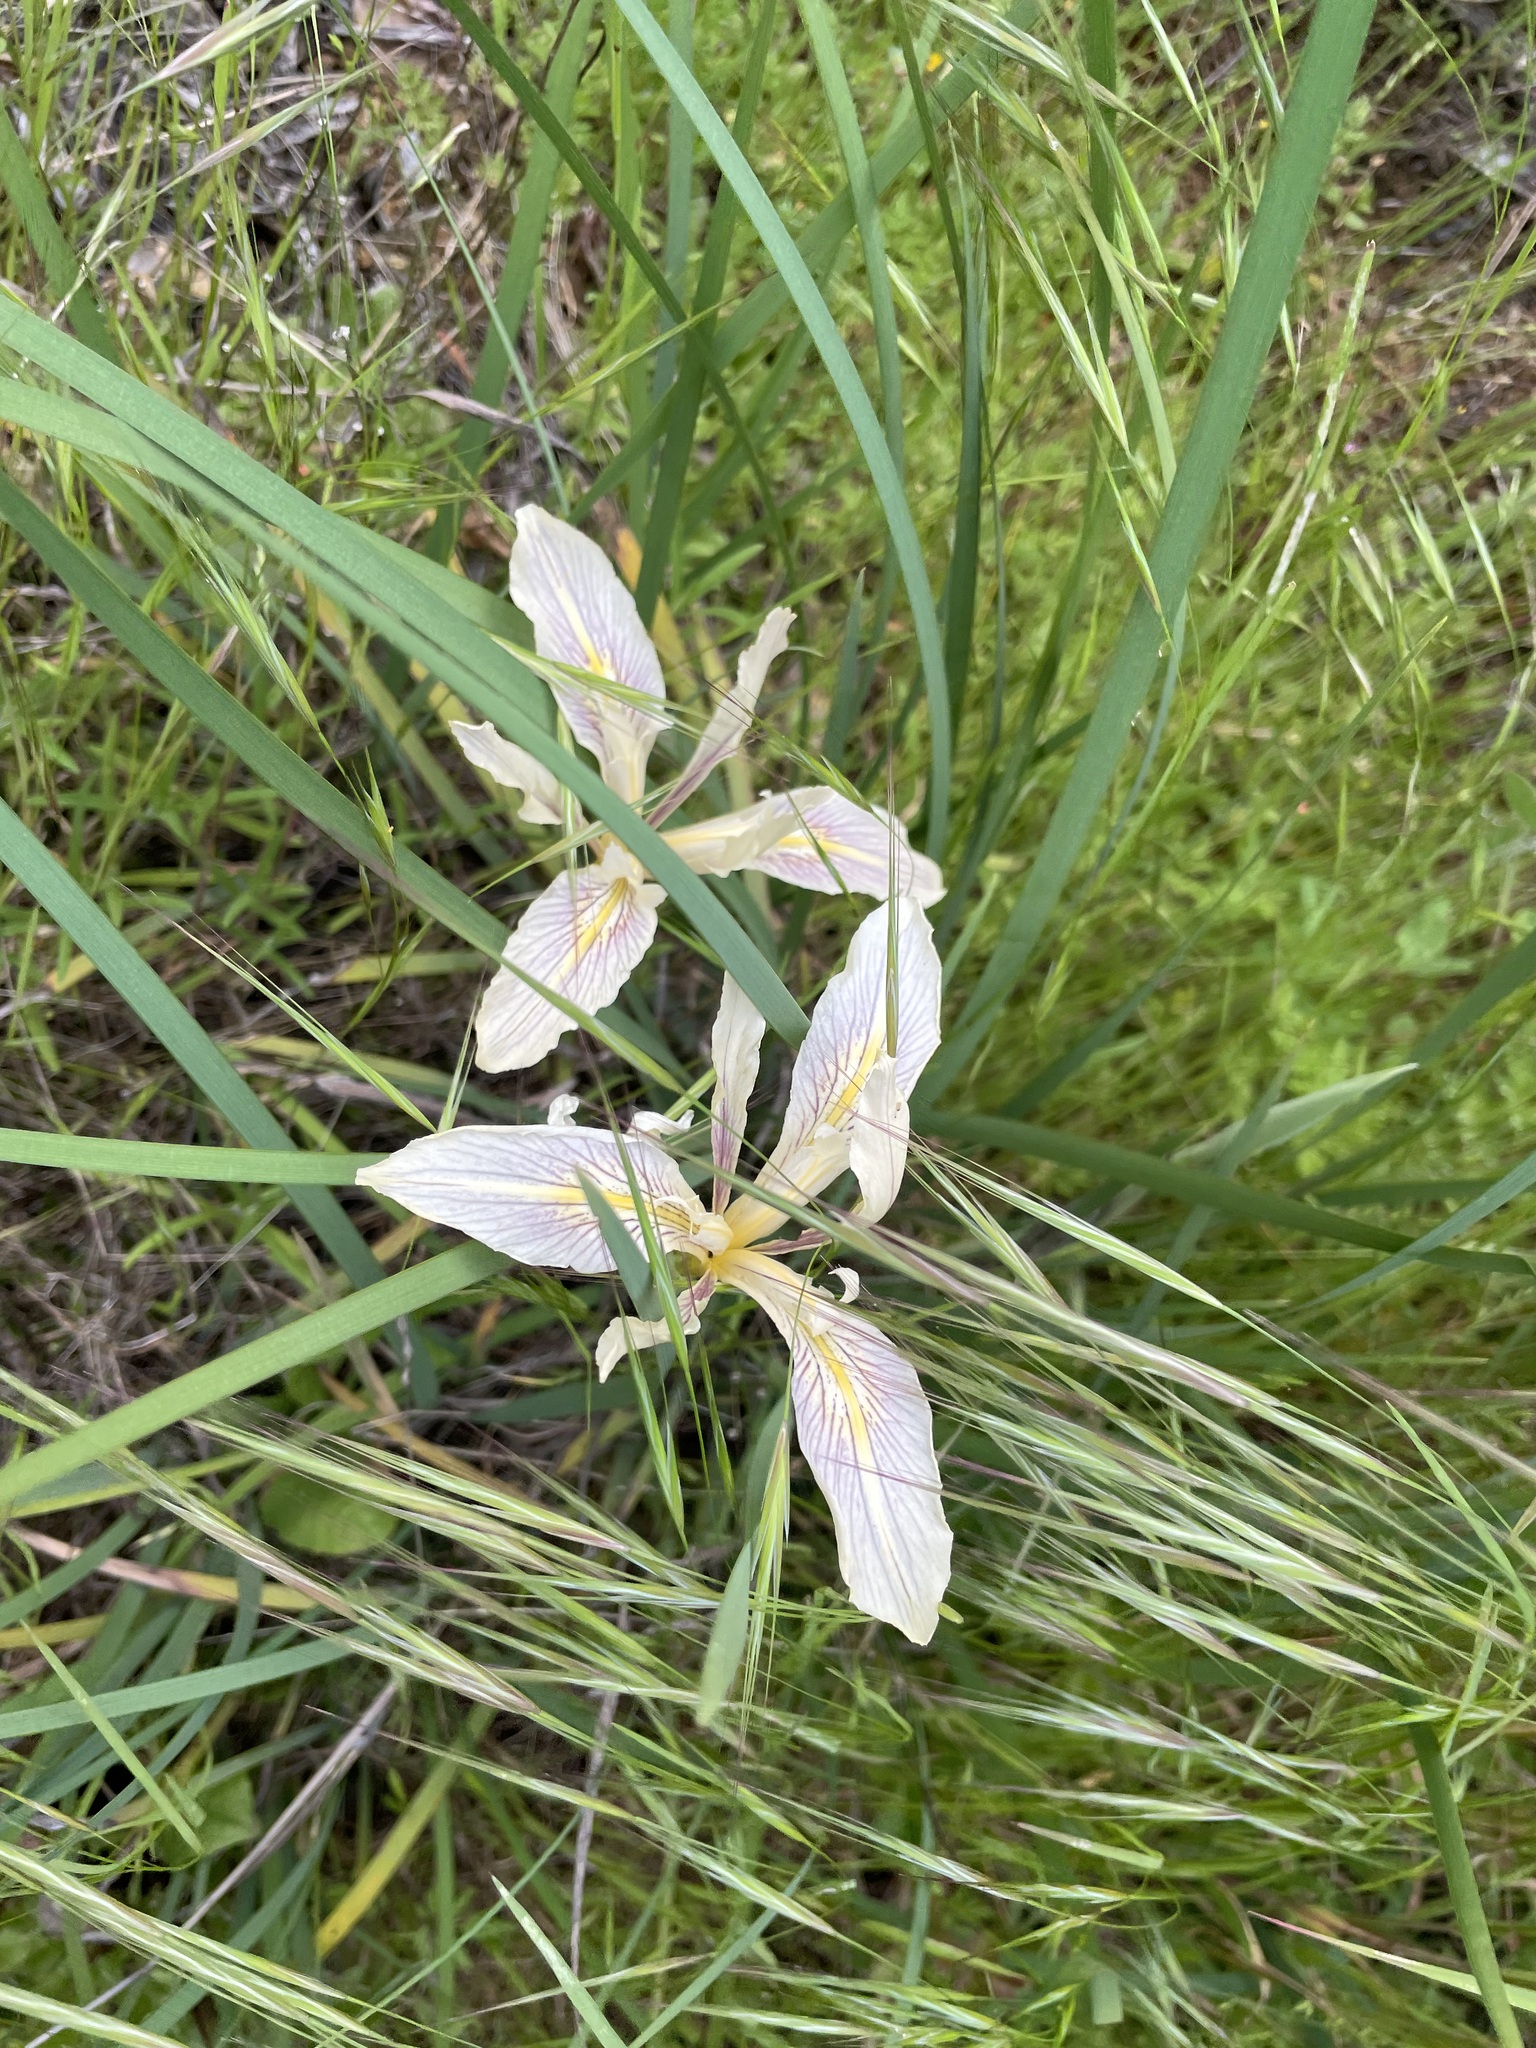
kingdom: Plantae
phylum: Tracheophyta
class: Liliopsida
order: Asparagales
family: Iridaceae
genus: Iris
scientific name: Iris fernaldii
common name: Fernald's iris
